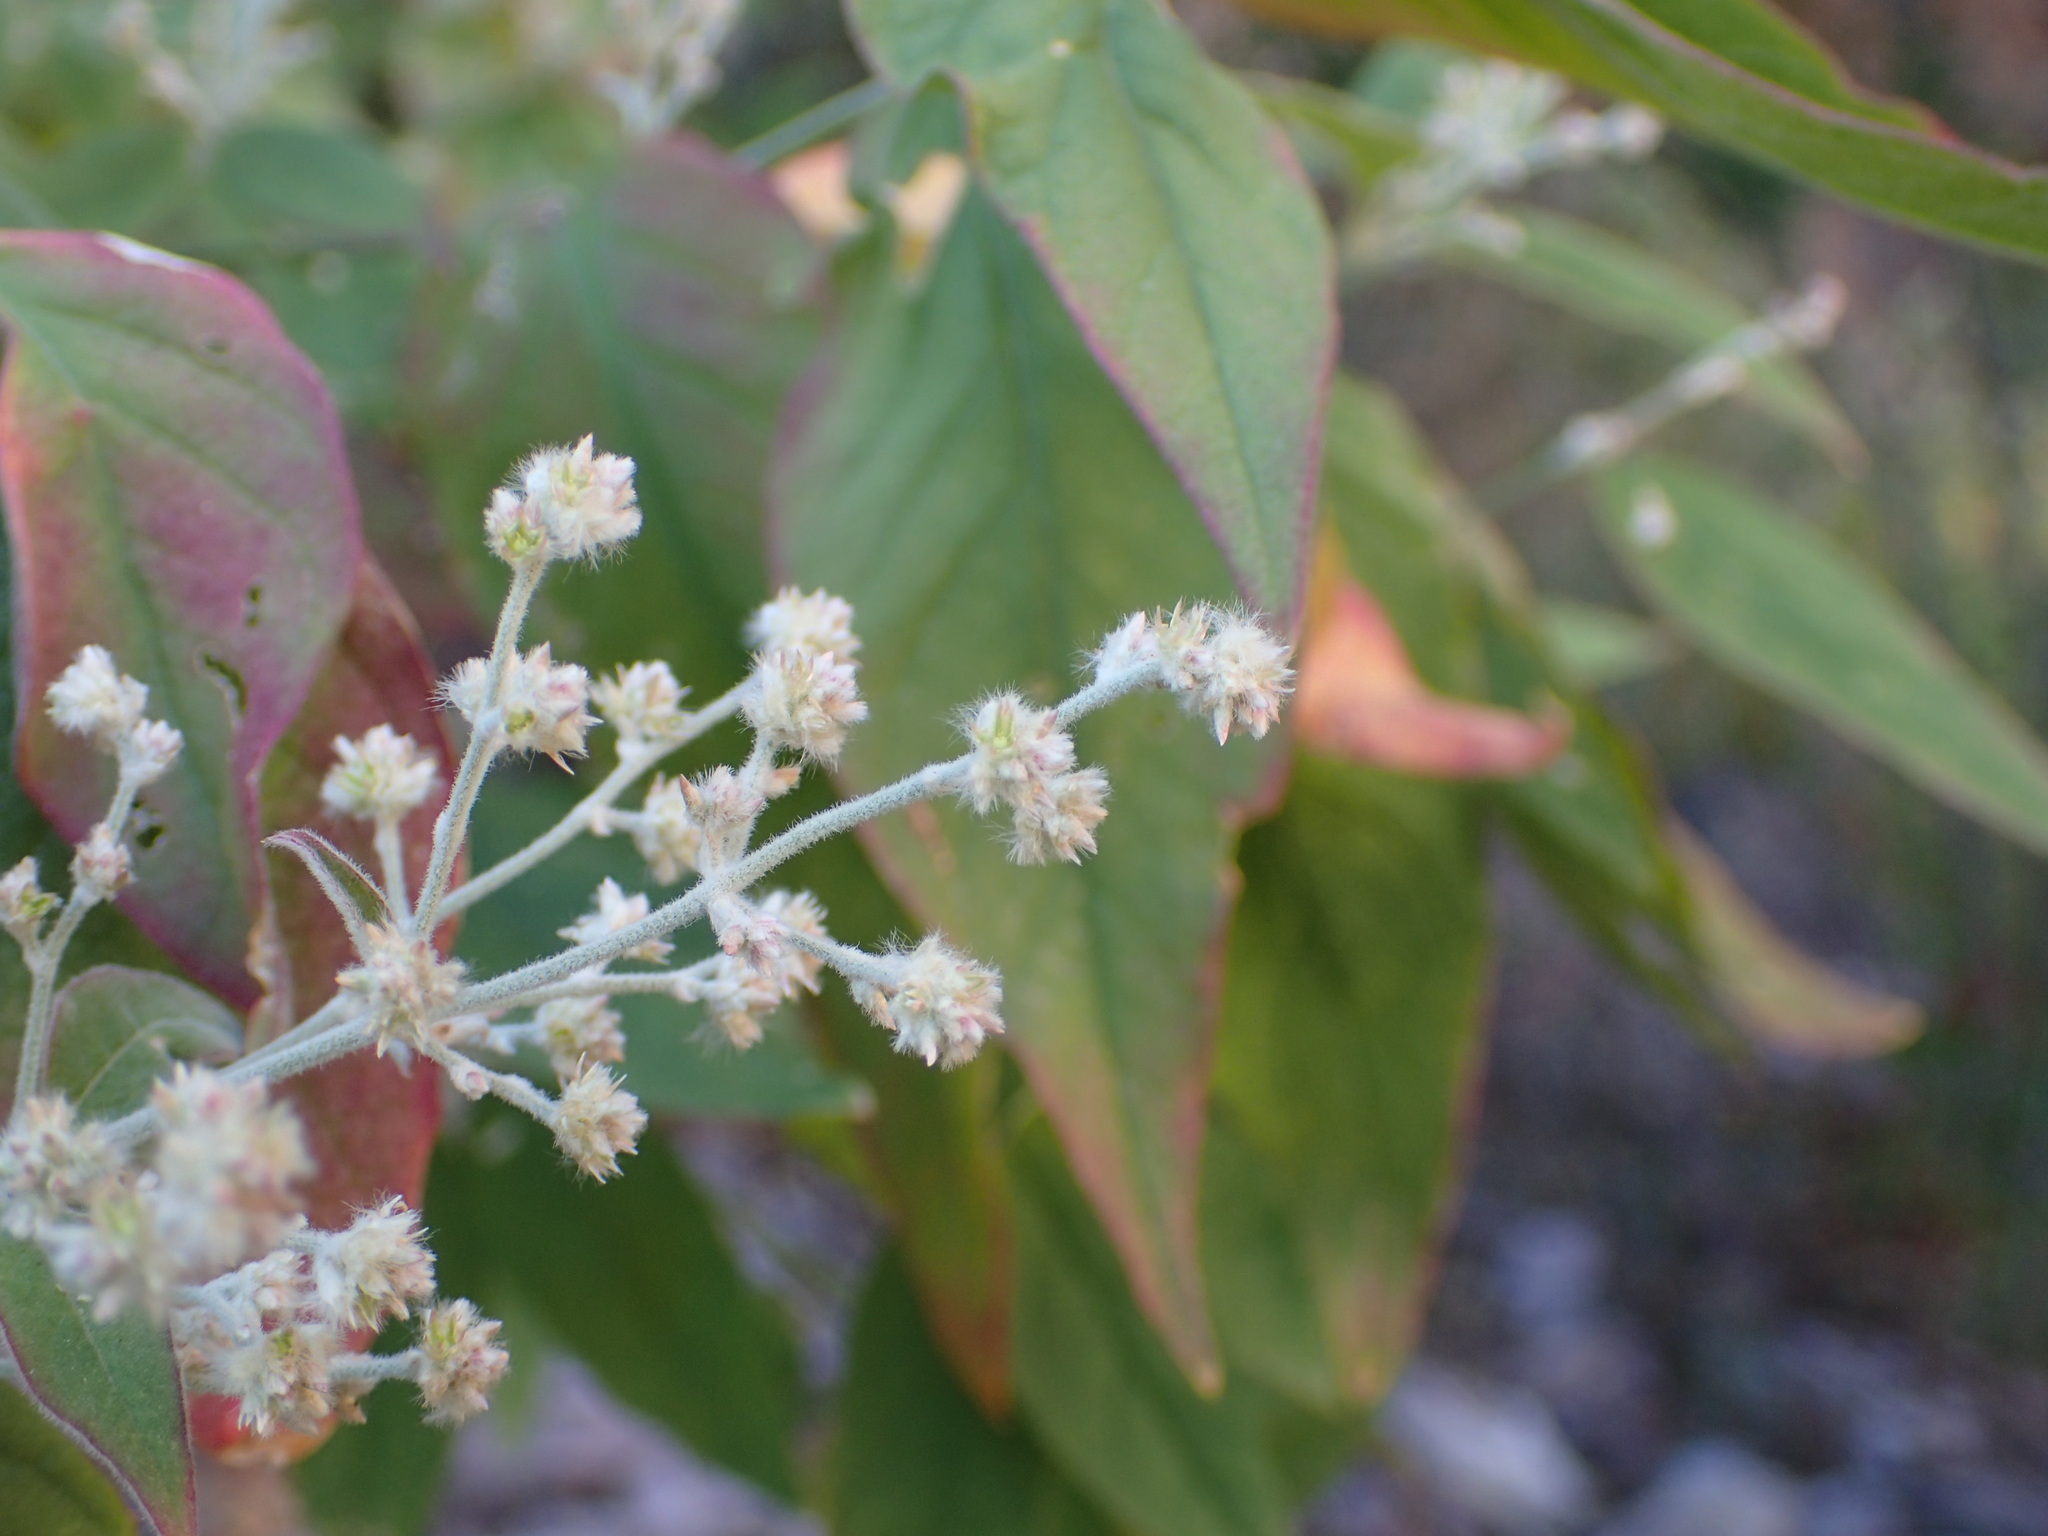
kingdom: Plantae
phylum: Tracheophyta
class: Magnoliopsida
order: Caryophyllales
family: Amaranthaceae
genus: Iresine
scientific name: Iresine latifolia
